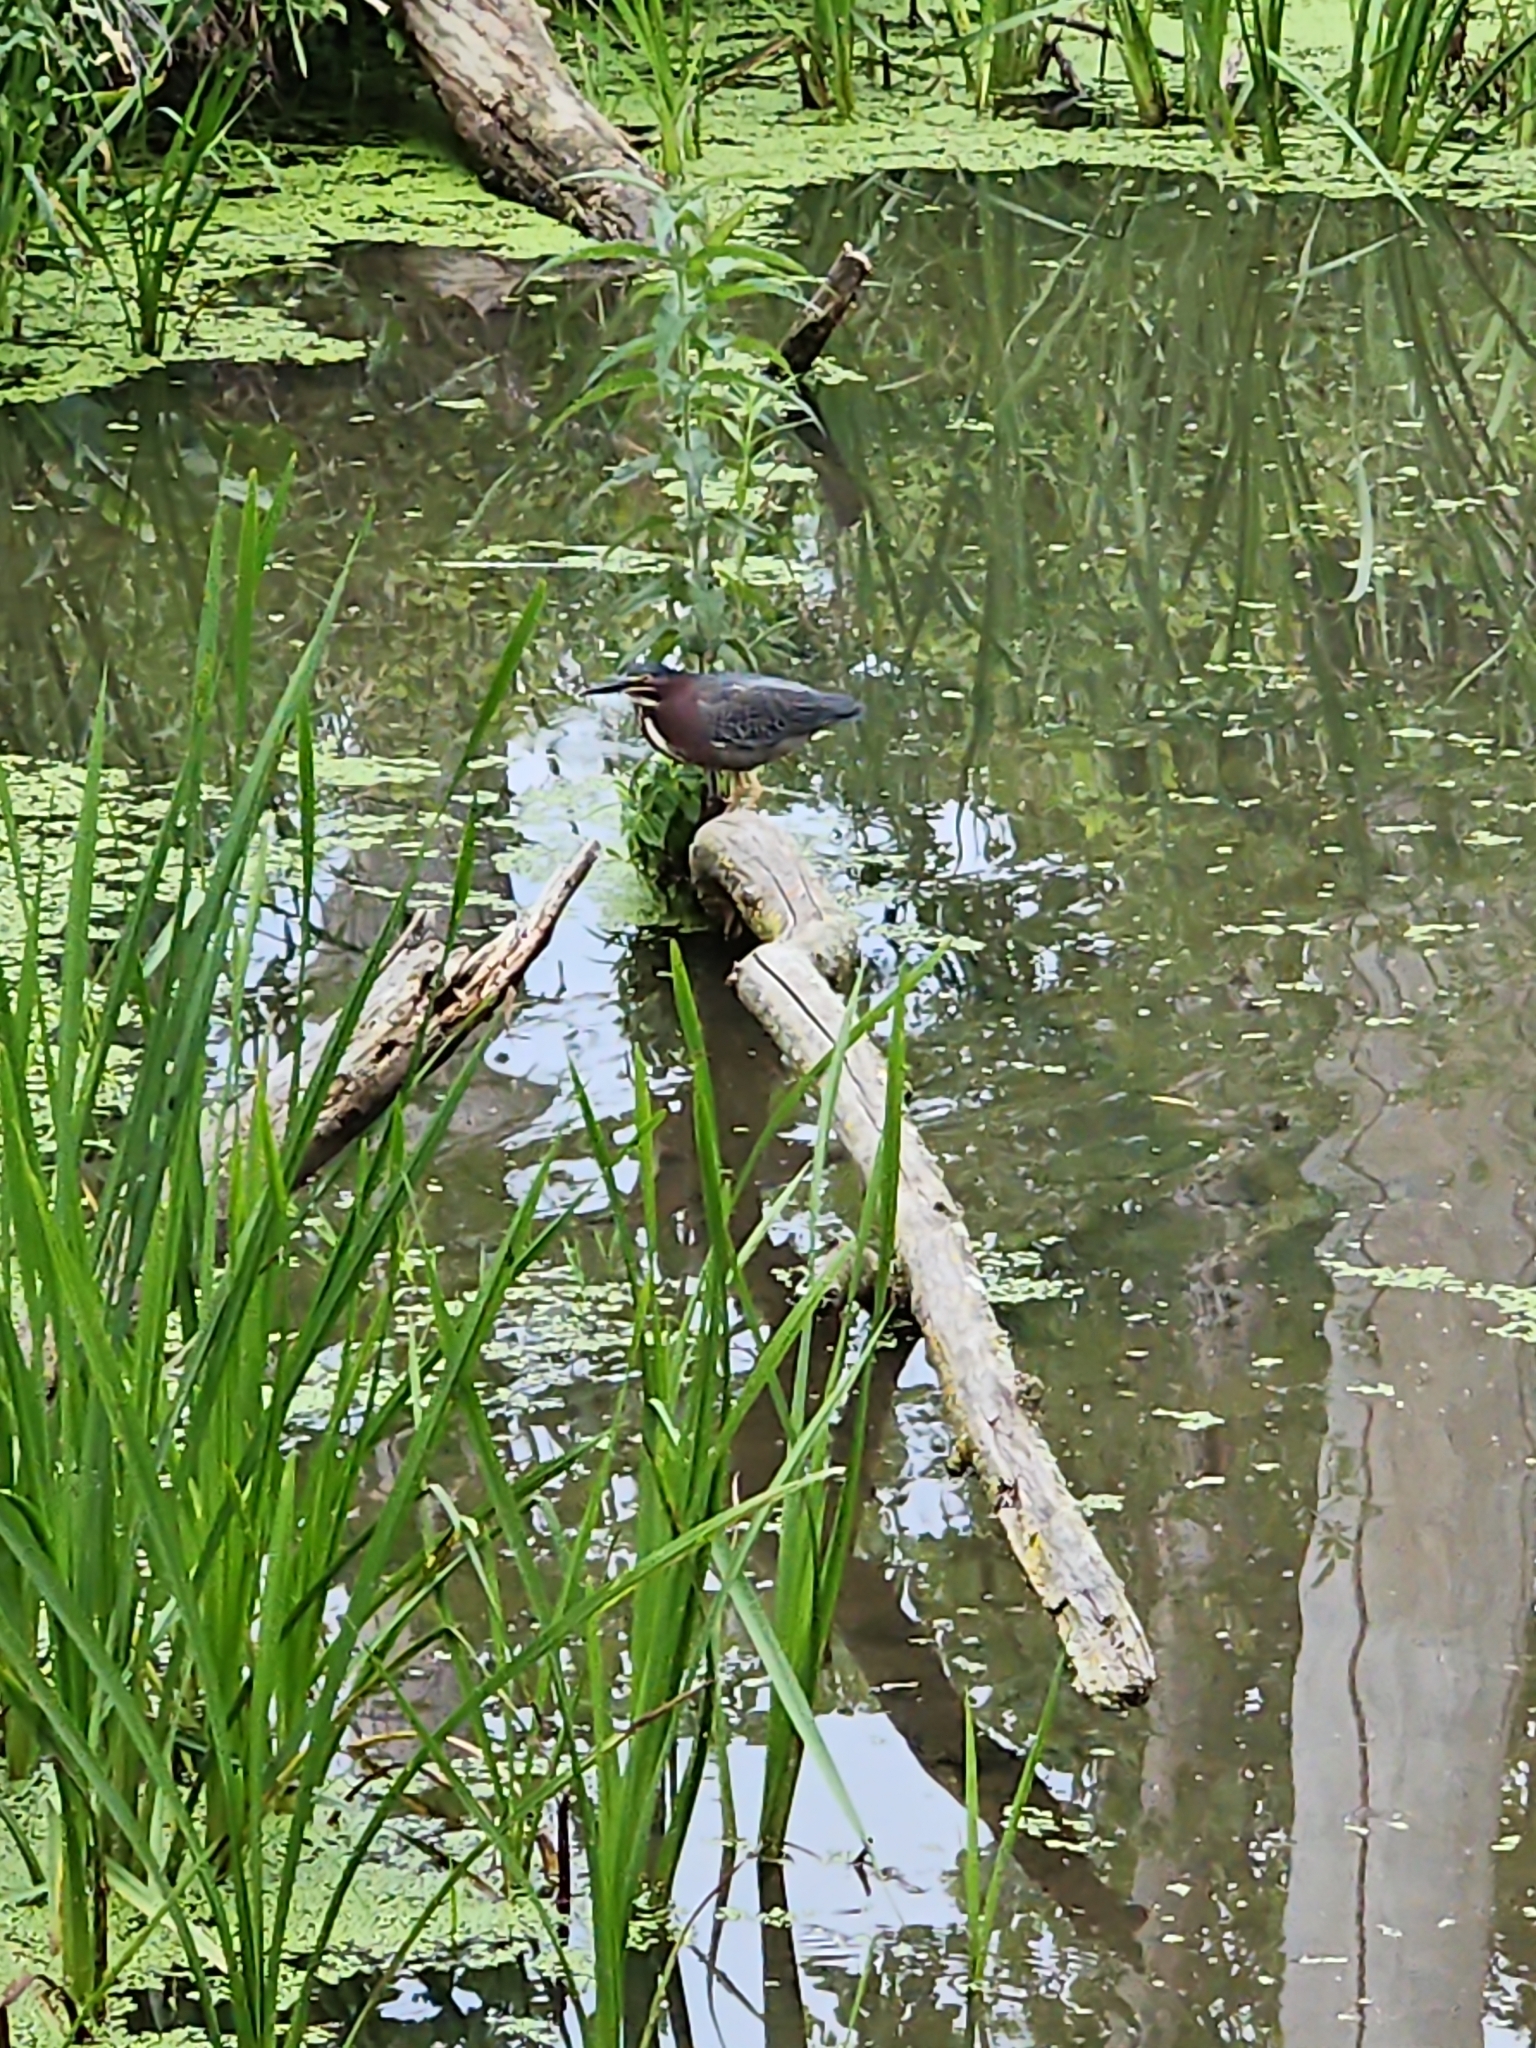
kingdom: Animalia
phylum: Chordata
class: Aves
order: Pelecaniformes
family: Ardeidae
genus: Butorides
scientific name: Butorides virescens
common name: Green heron
